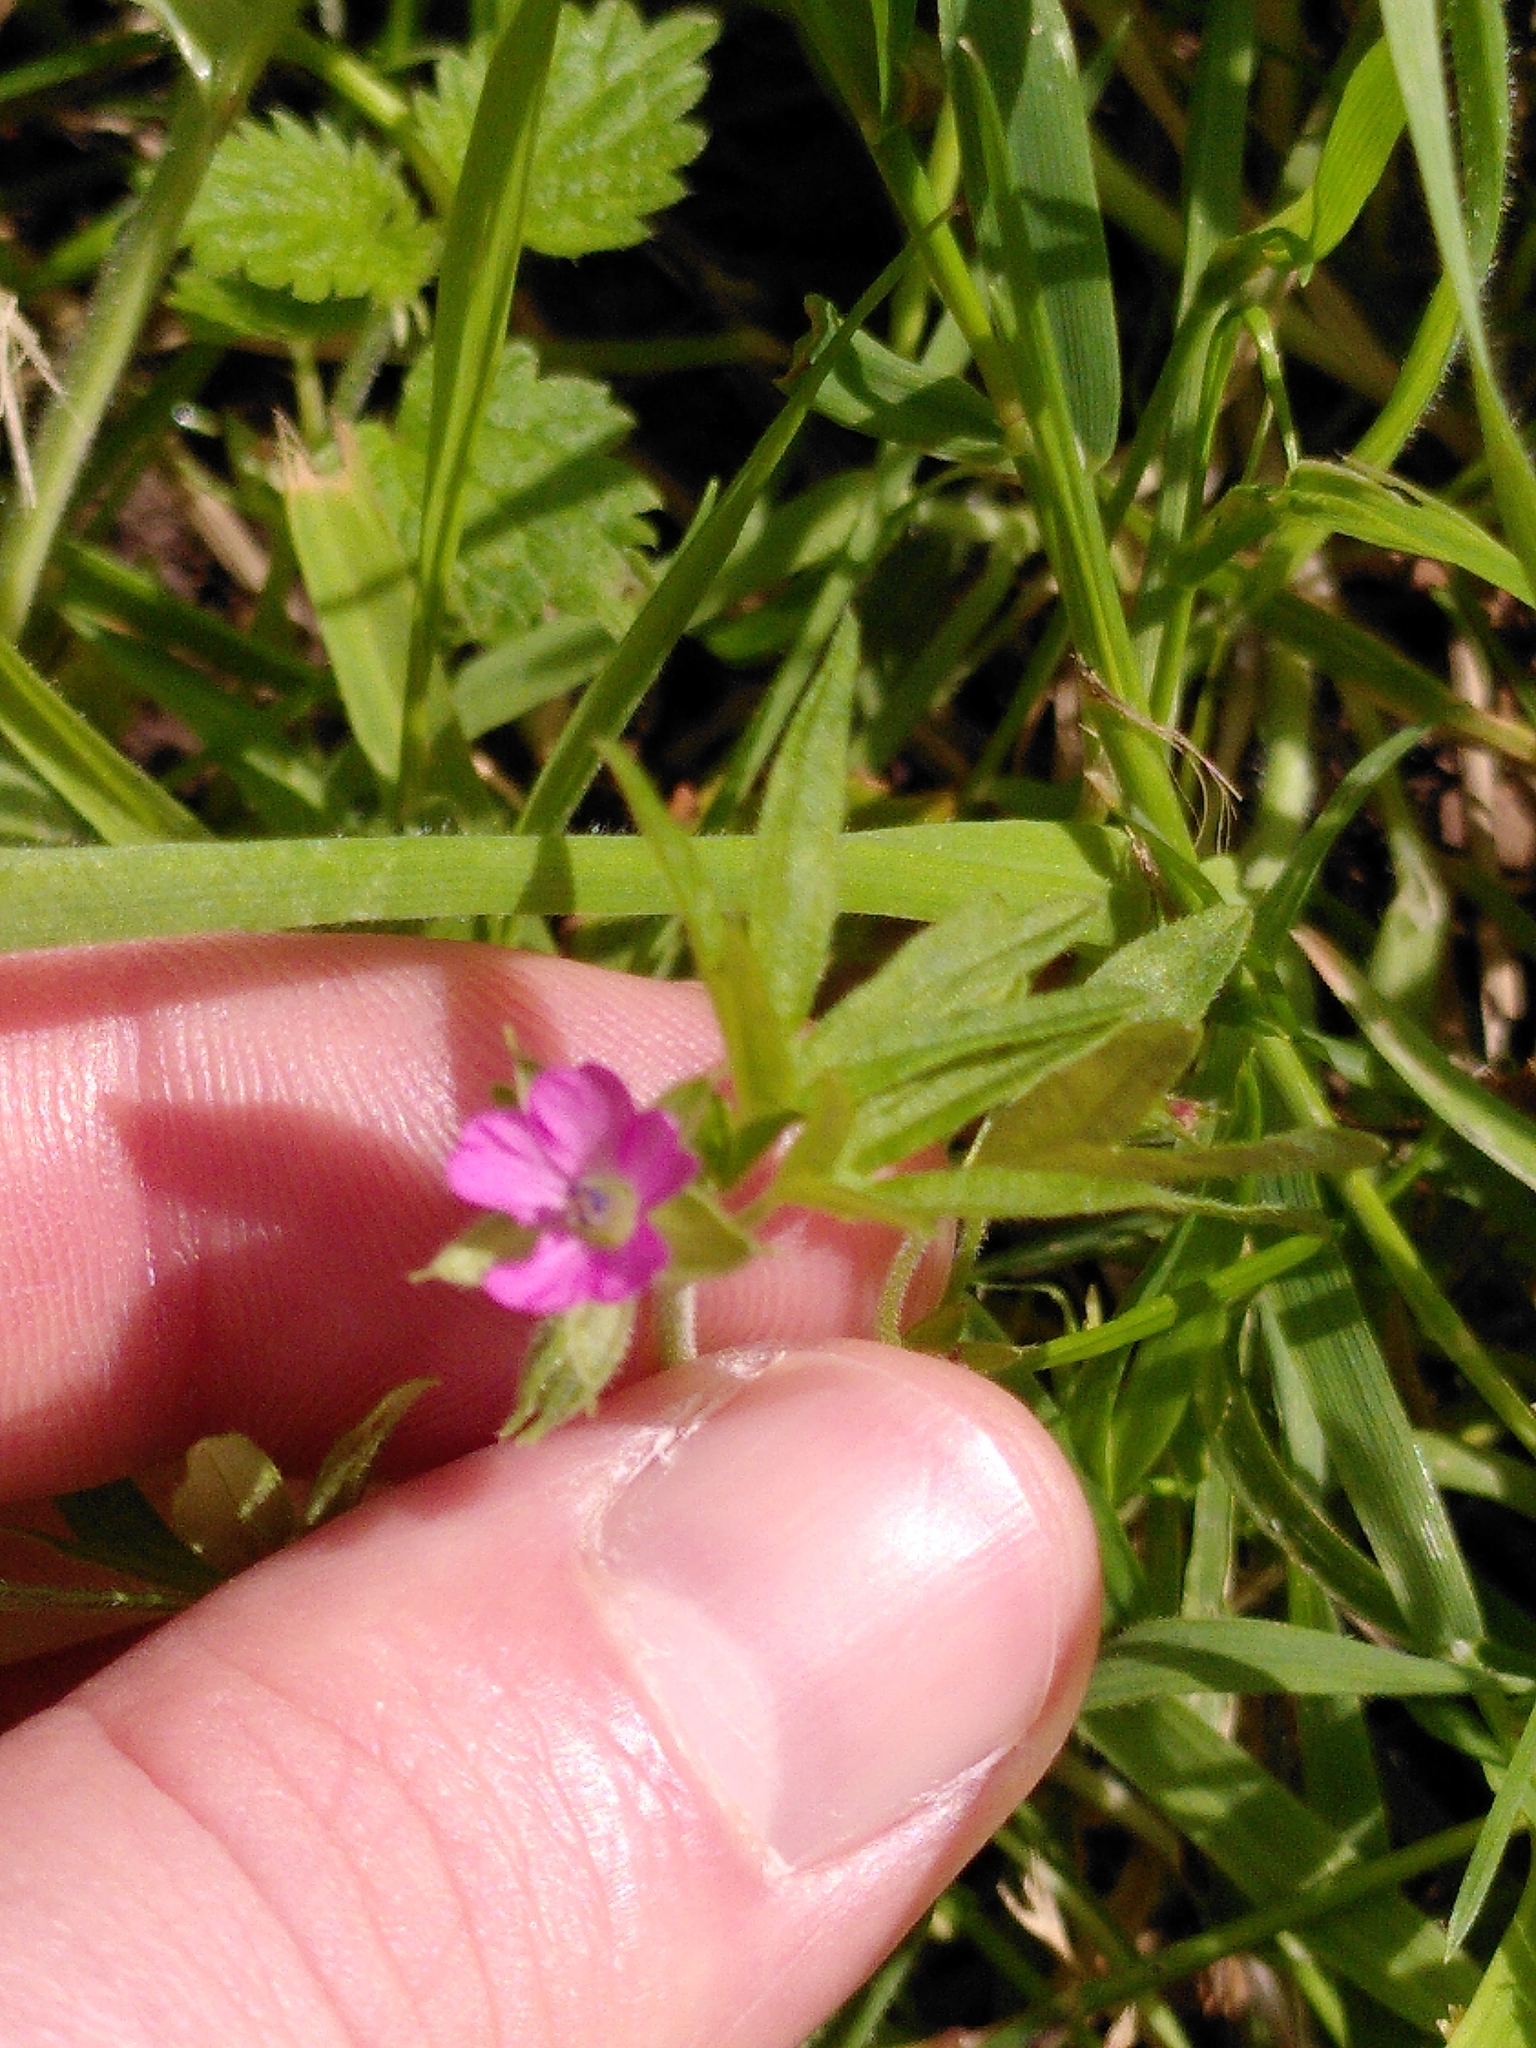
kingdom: Plantae
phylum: Tracheophyta
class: Magnoliopsida
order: Geraniales
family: Geraniaceae
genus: Geranium
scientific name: Geranium dissectum
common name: Cut-leaved crane's-bill
